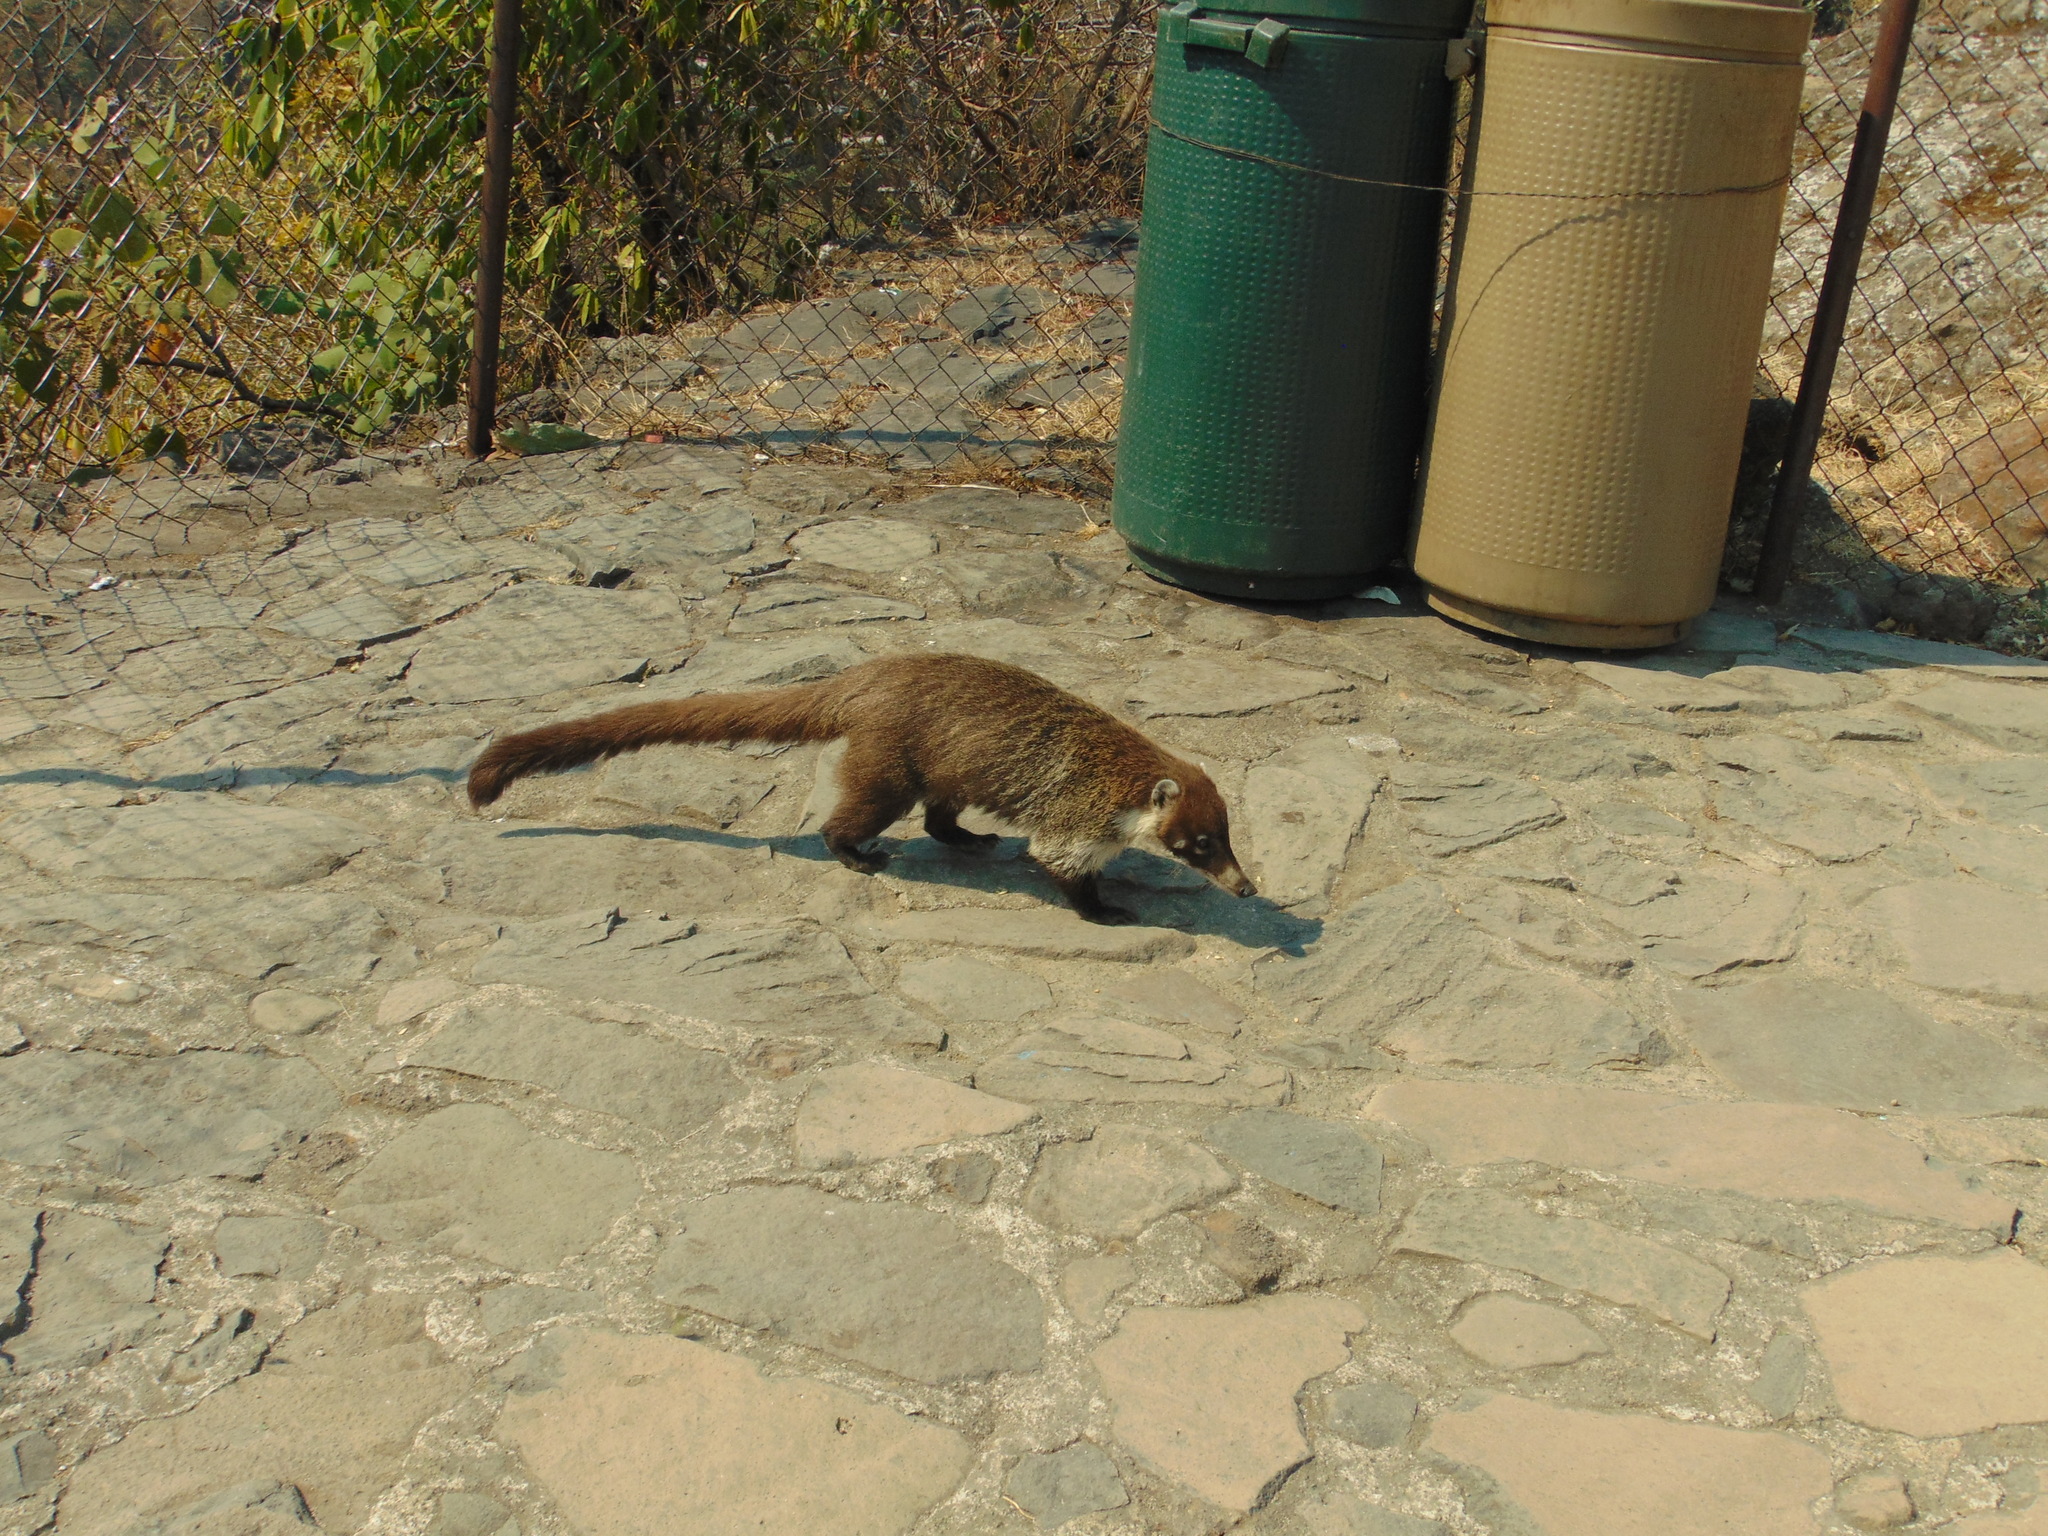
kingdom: Animalia
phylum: Chordata
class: Mammalia
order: Carnivora
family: Procyonidae
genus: Nasua
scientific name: Nasua narica
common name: White-nosed coati
